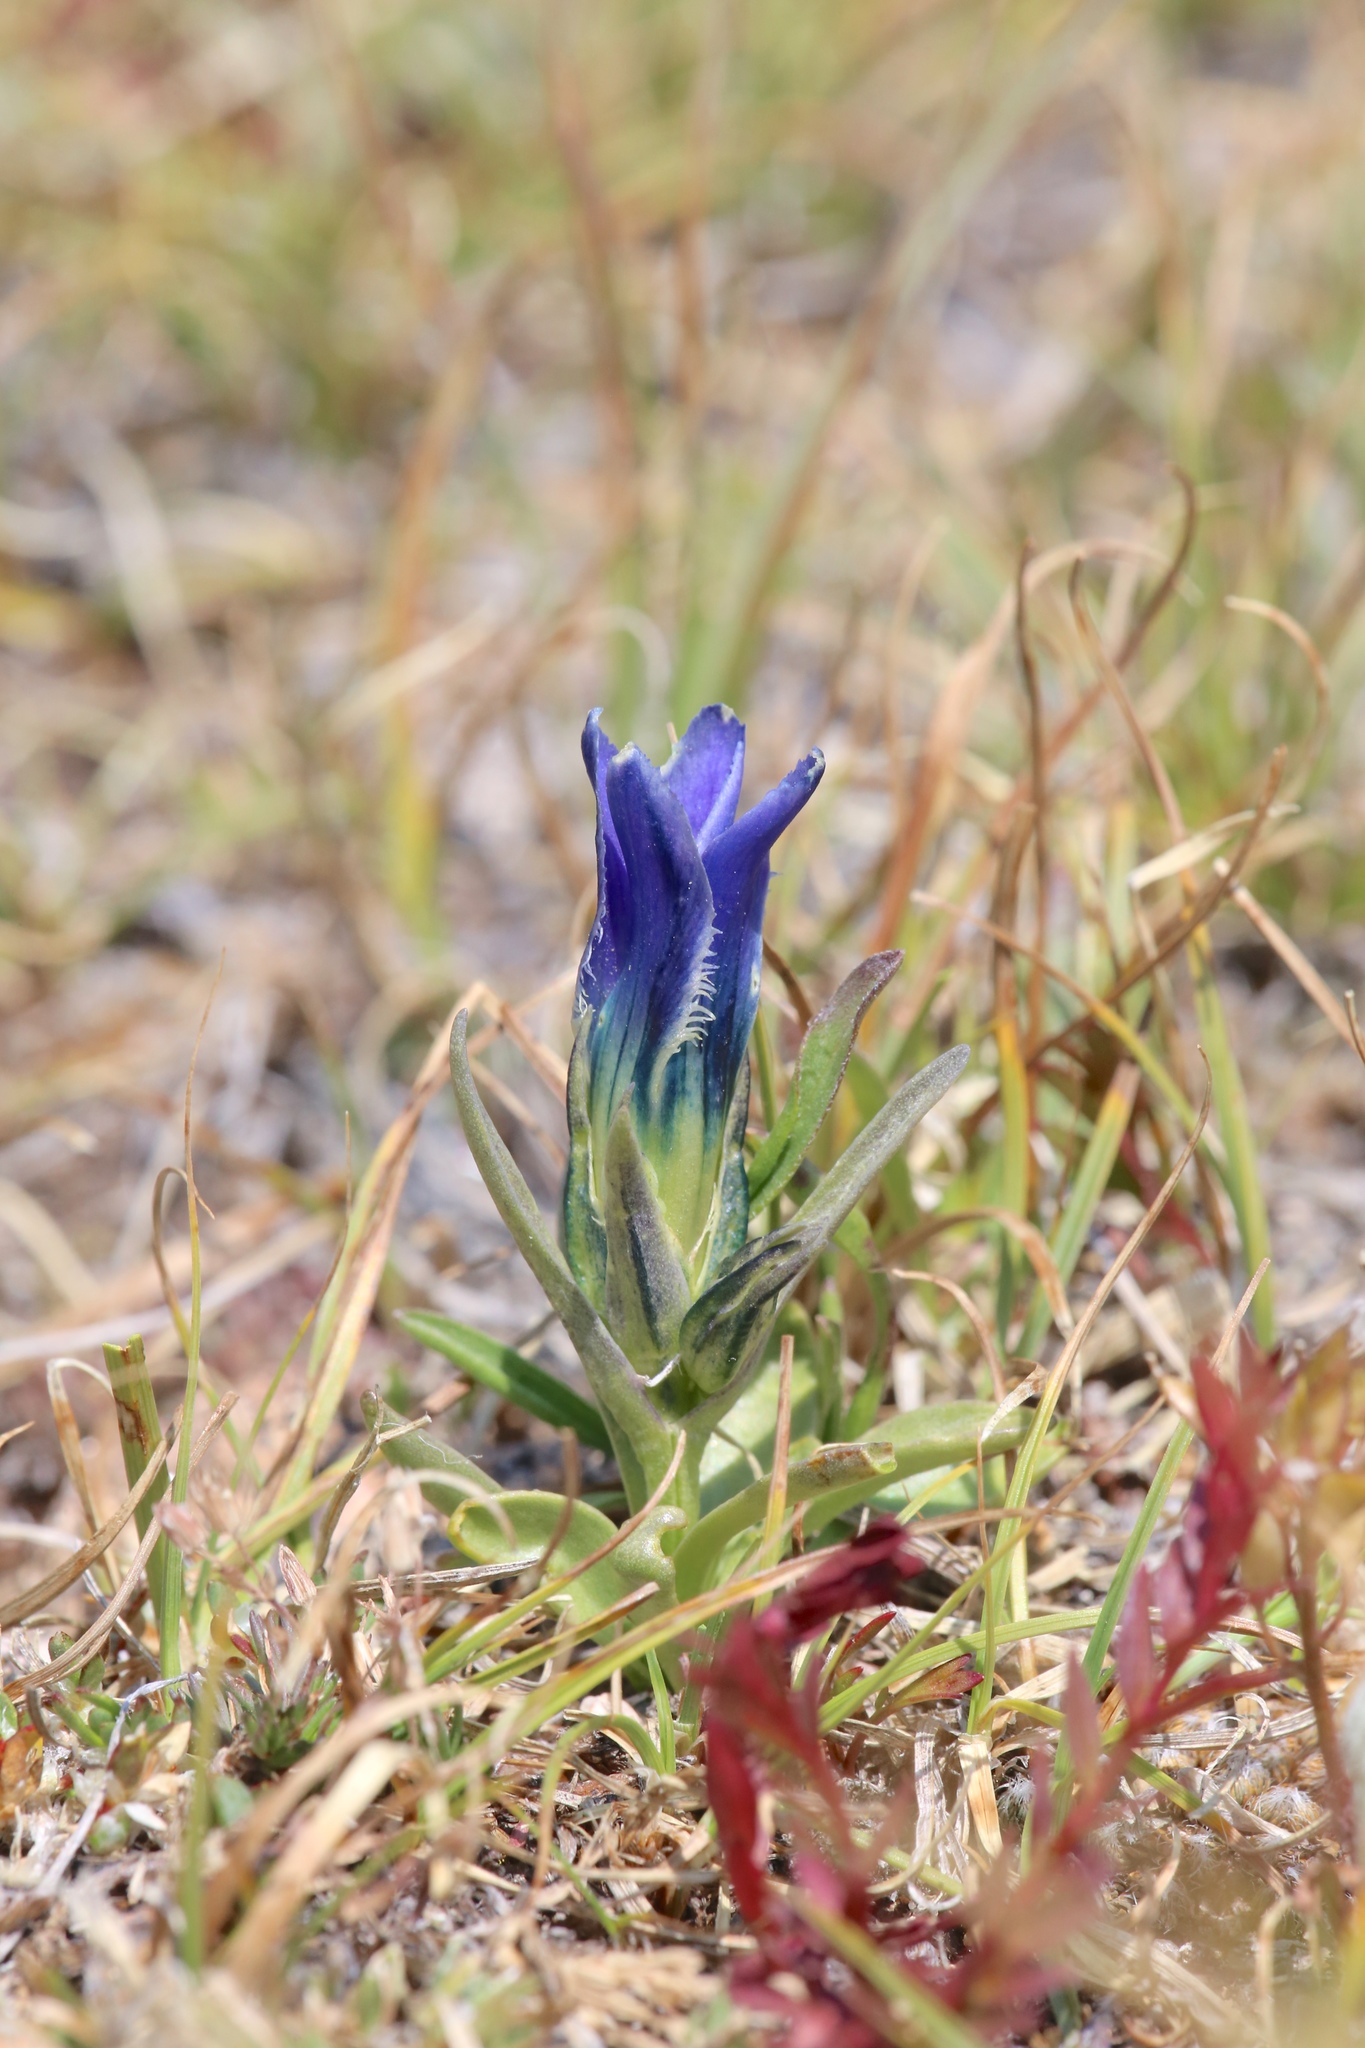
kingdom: Plantae
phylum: Tracheophyta
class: Magnoliopsida
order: Gentianales
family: Gentianaceae
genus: Gentianopsis
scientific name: Gentianopsis barbellata
